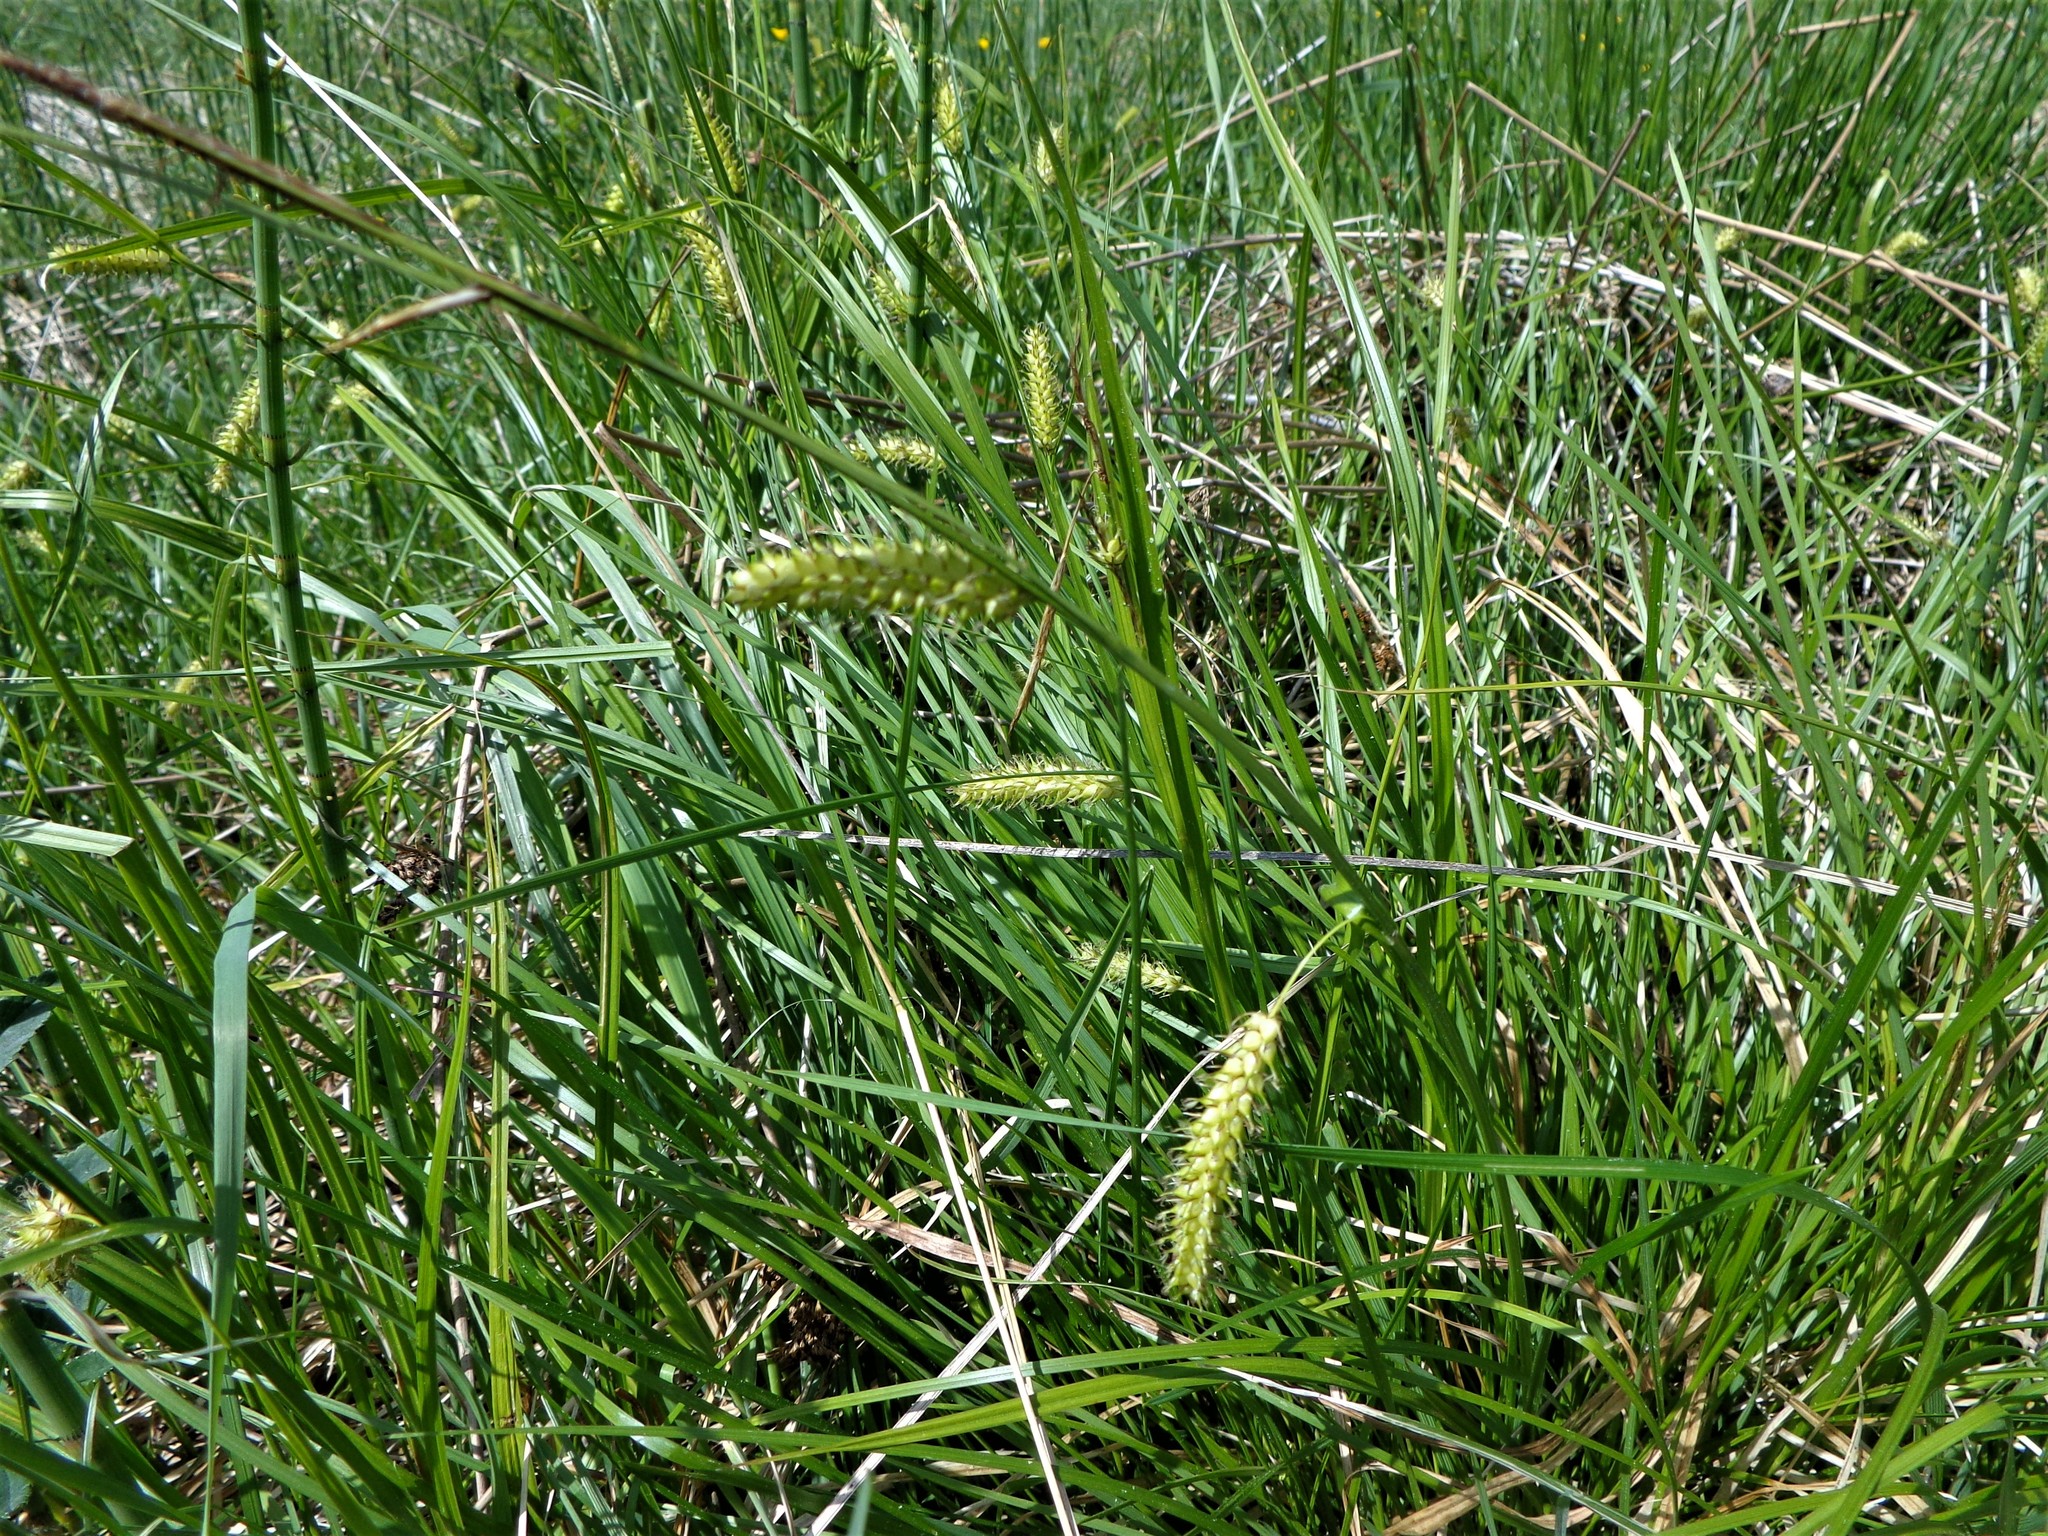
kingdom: Plantae
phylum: Tracheophyta
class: Liliopsida
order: Poales
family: Cyperaceae
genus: Carex
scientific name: Carex vesicaria
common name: Bladder-sedge
